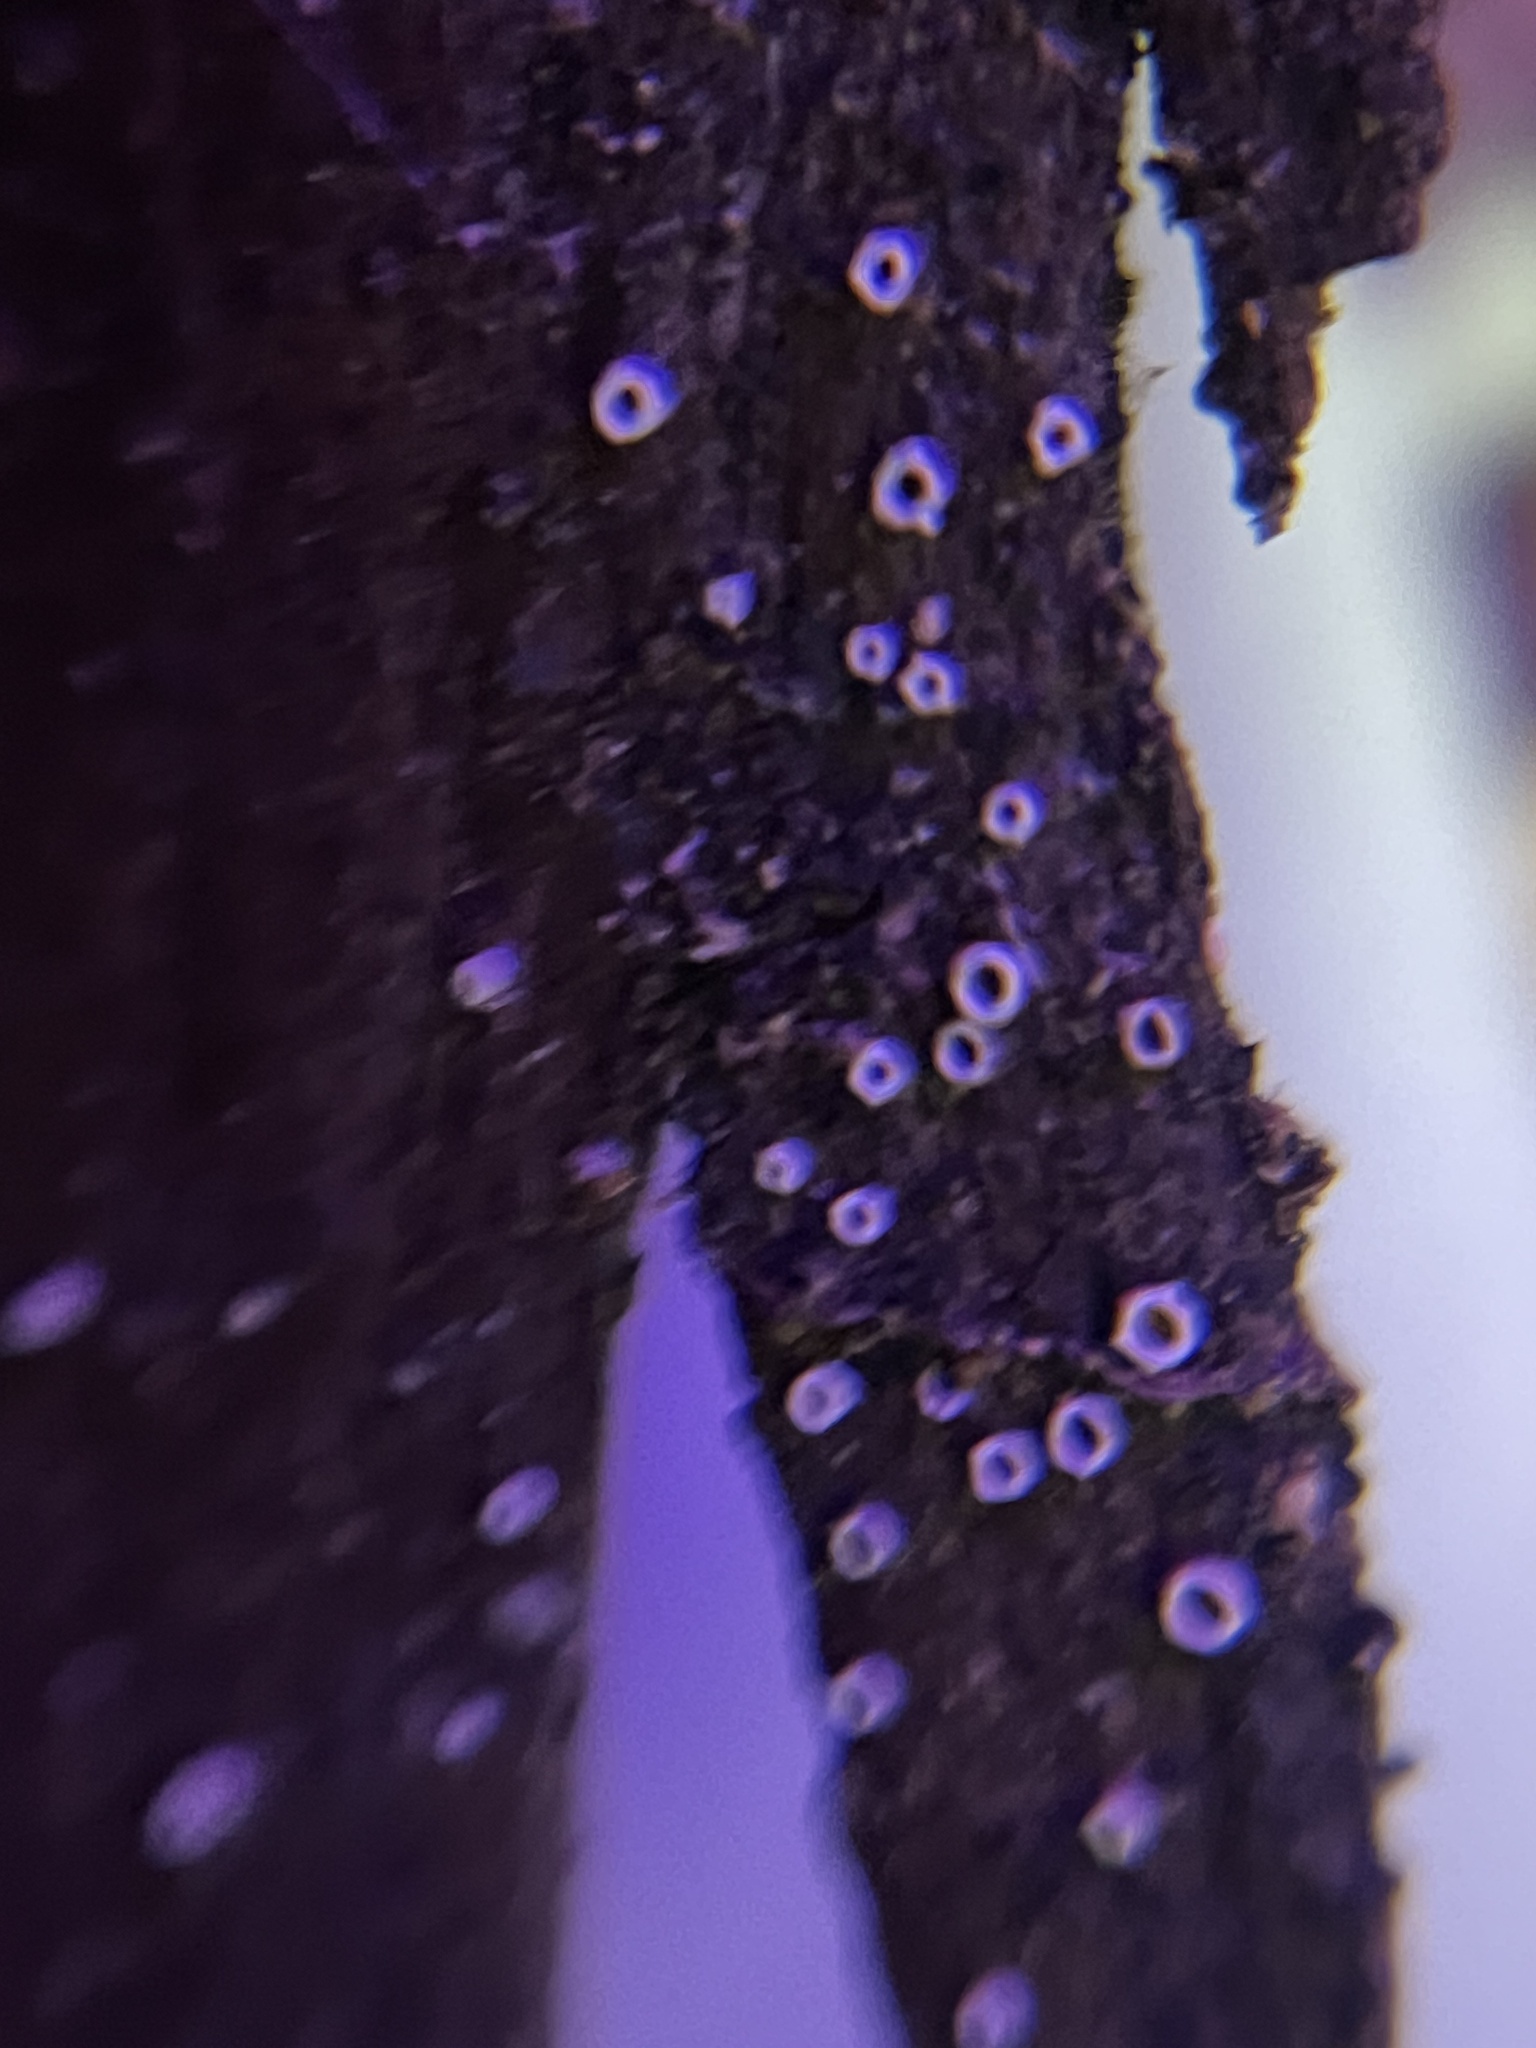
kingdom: Fungi
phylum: Ascomycota
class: Lecanoromycetes
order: Ostropales
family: Stictidaceae
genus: Stictis
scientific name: Stictis radiata
